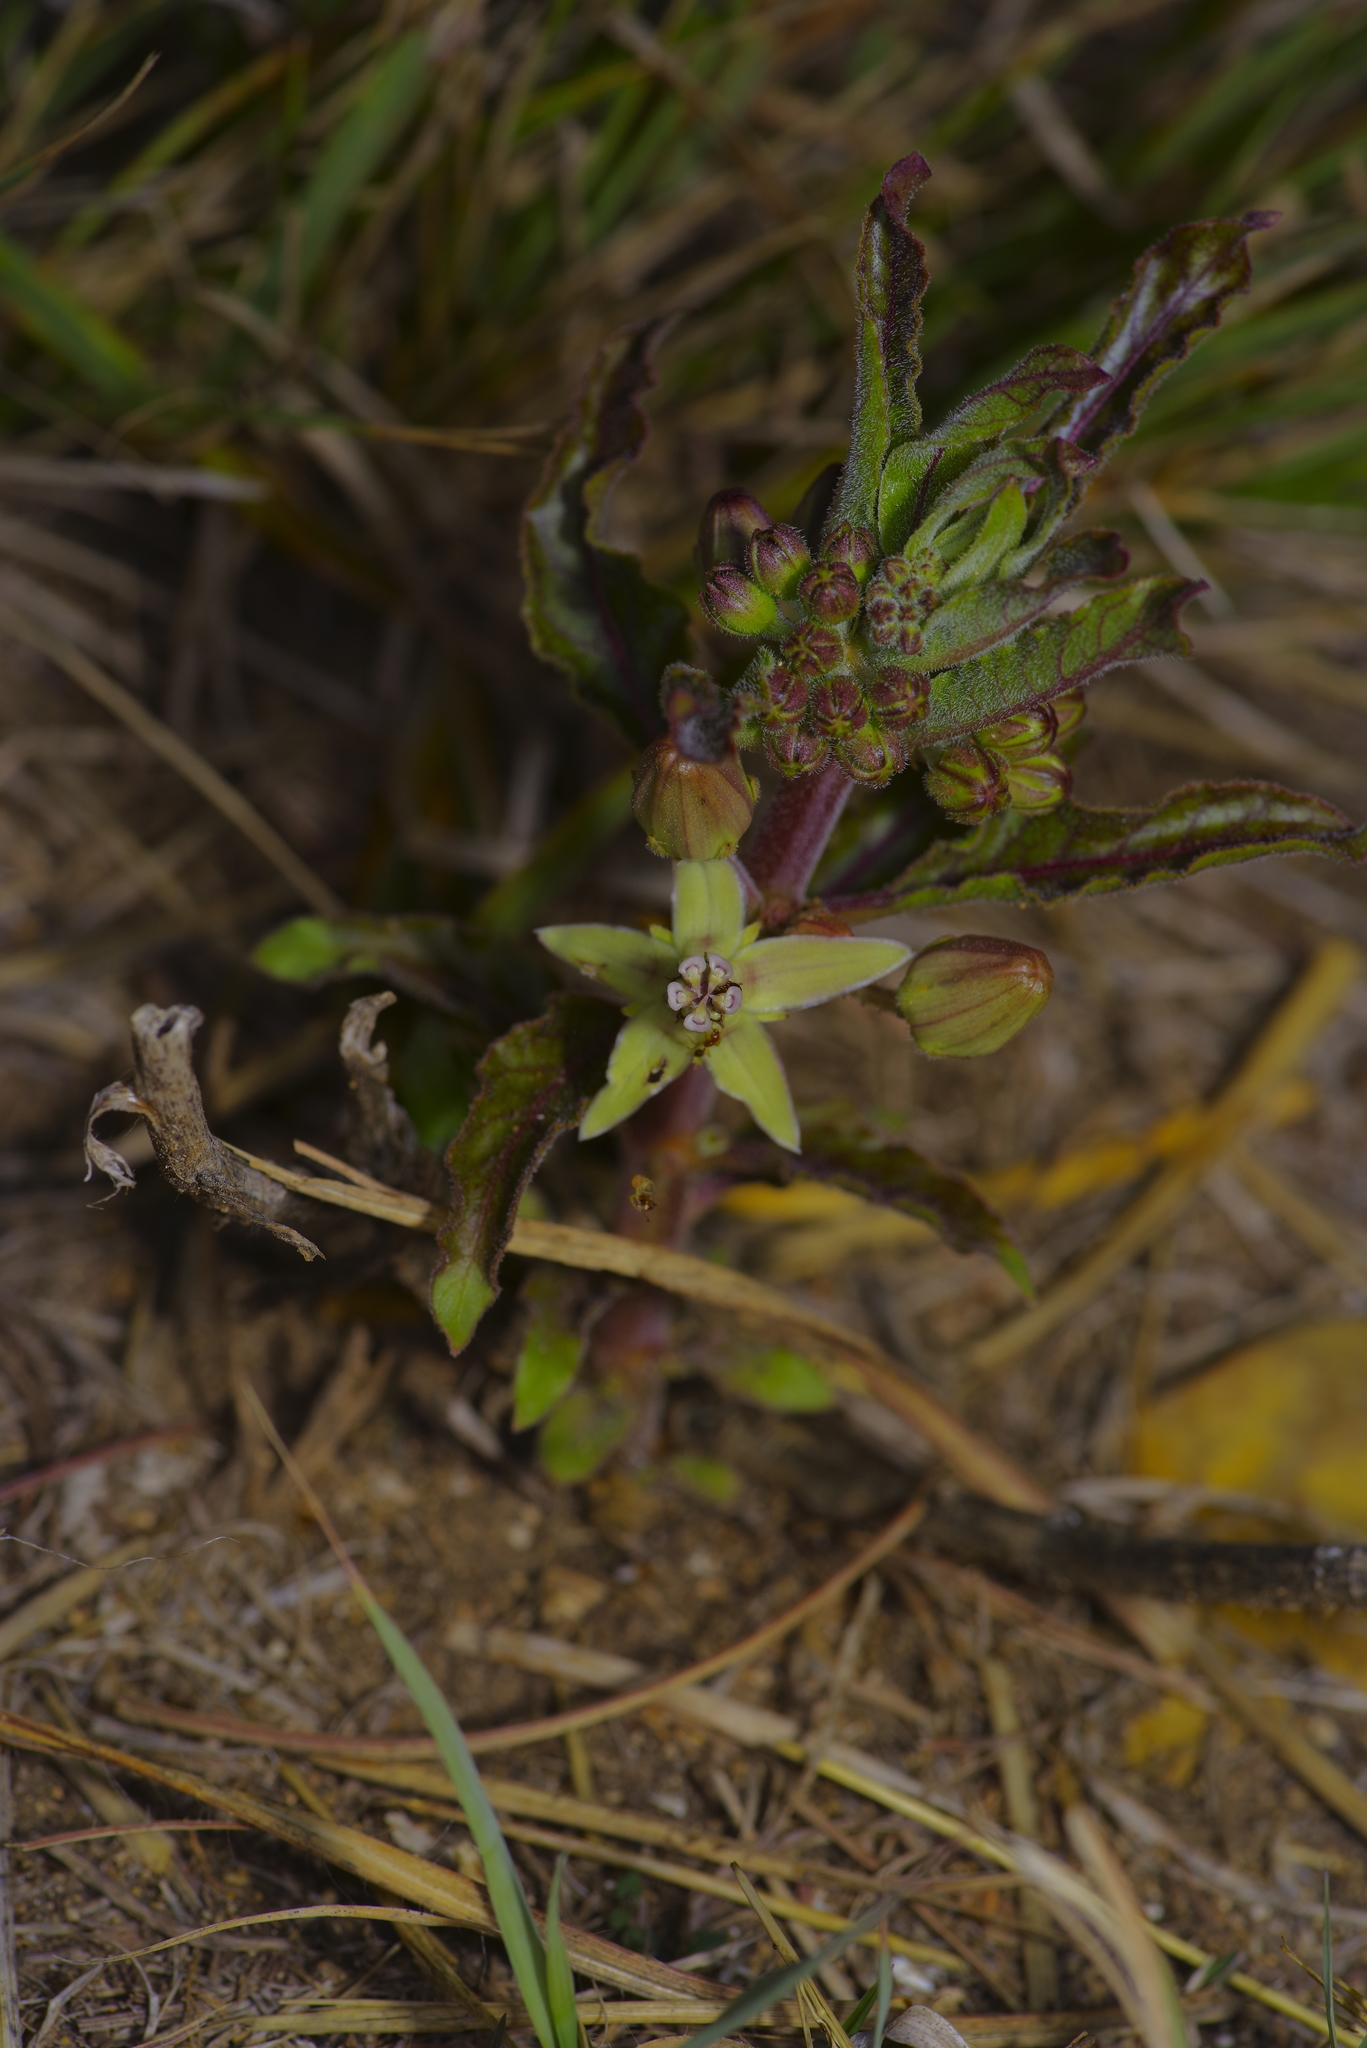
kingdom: Plantae
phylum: Tracheophyta
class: Magnoliopsida
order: Gentianales
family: Apocynaceae
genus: Asclepias
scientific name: Asclepias oenotheroides
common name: Zizotes milkweed
